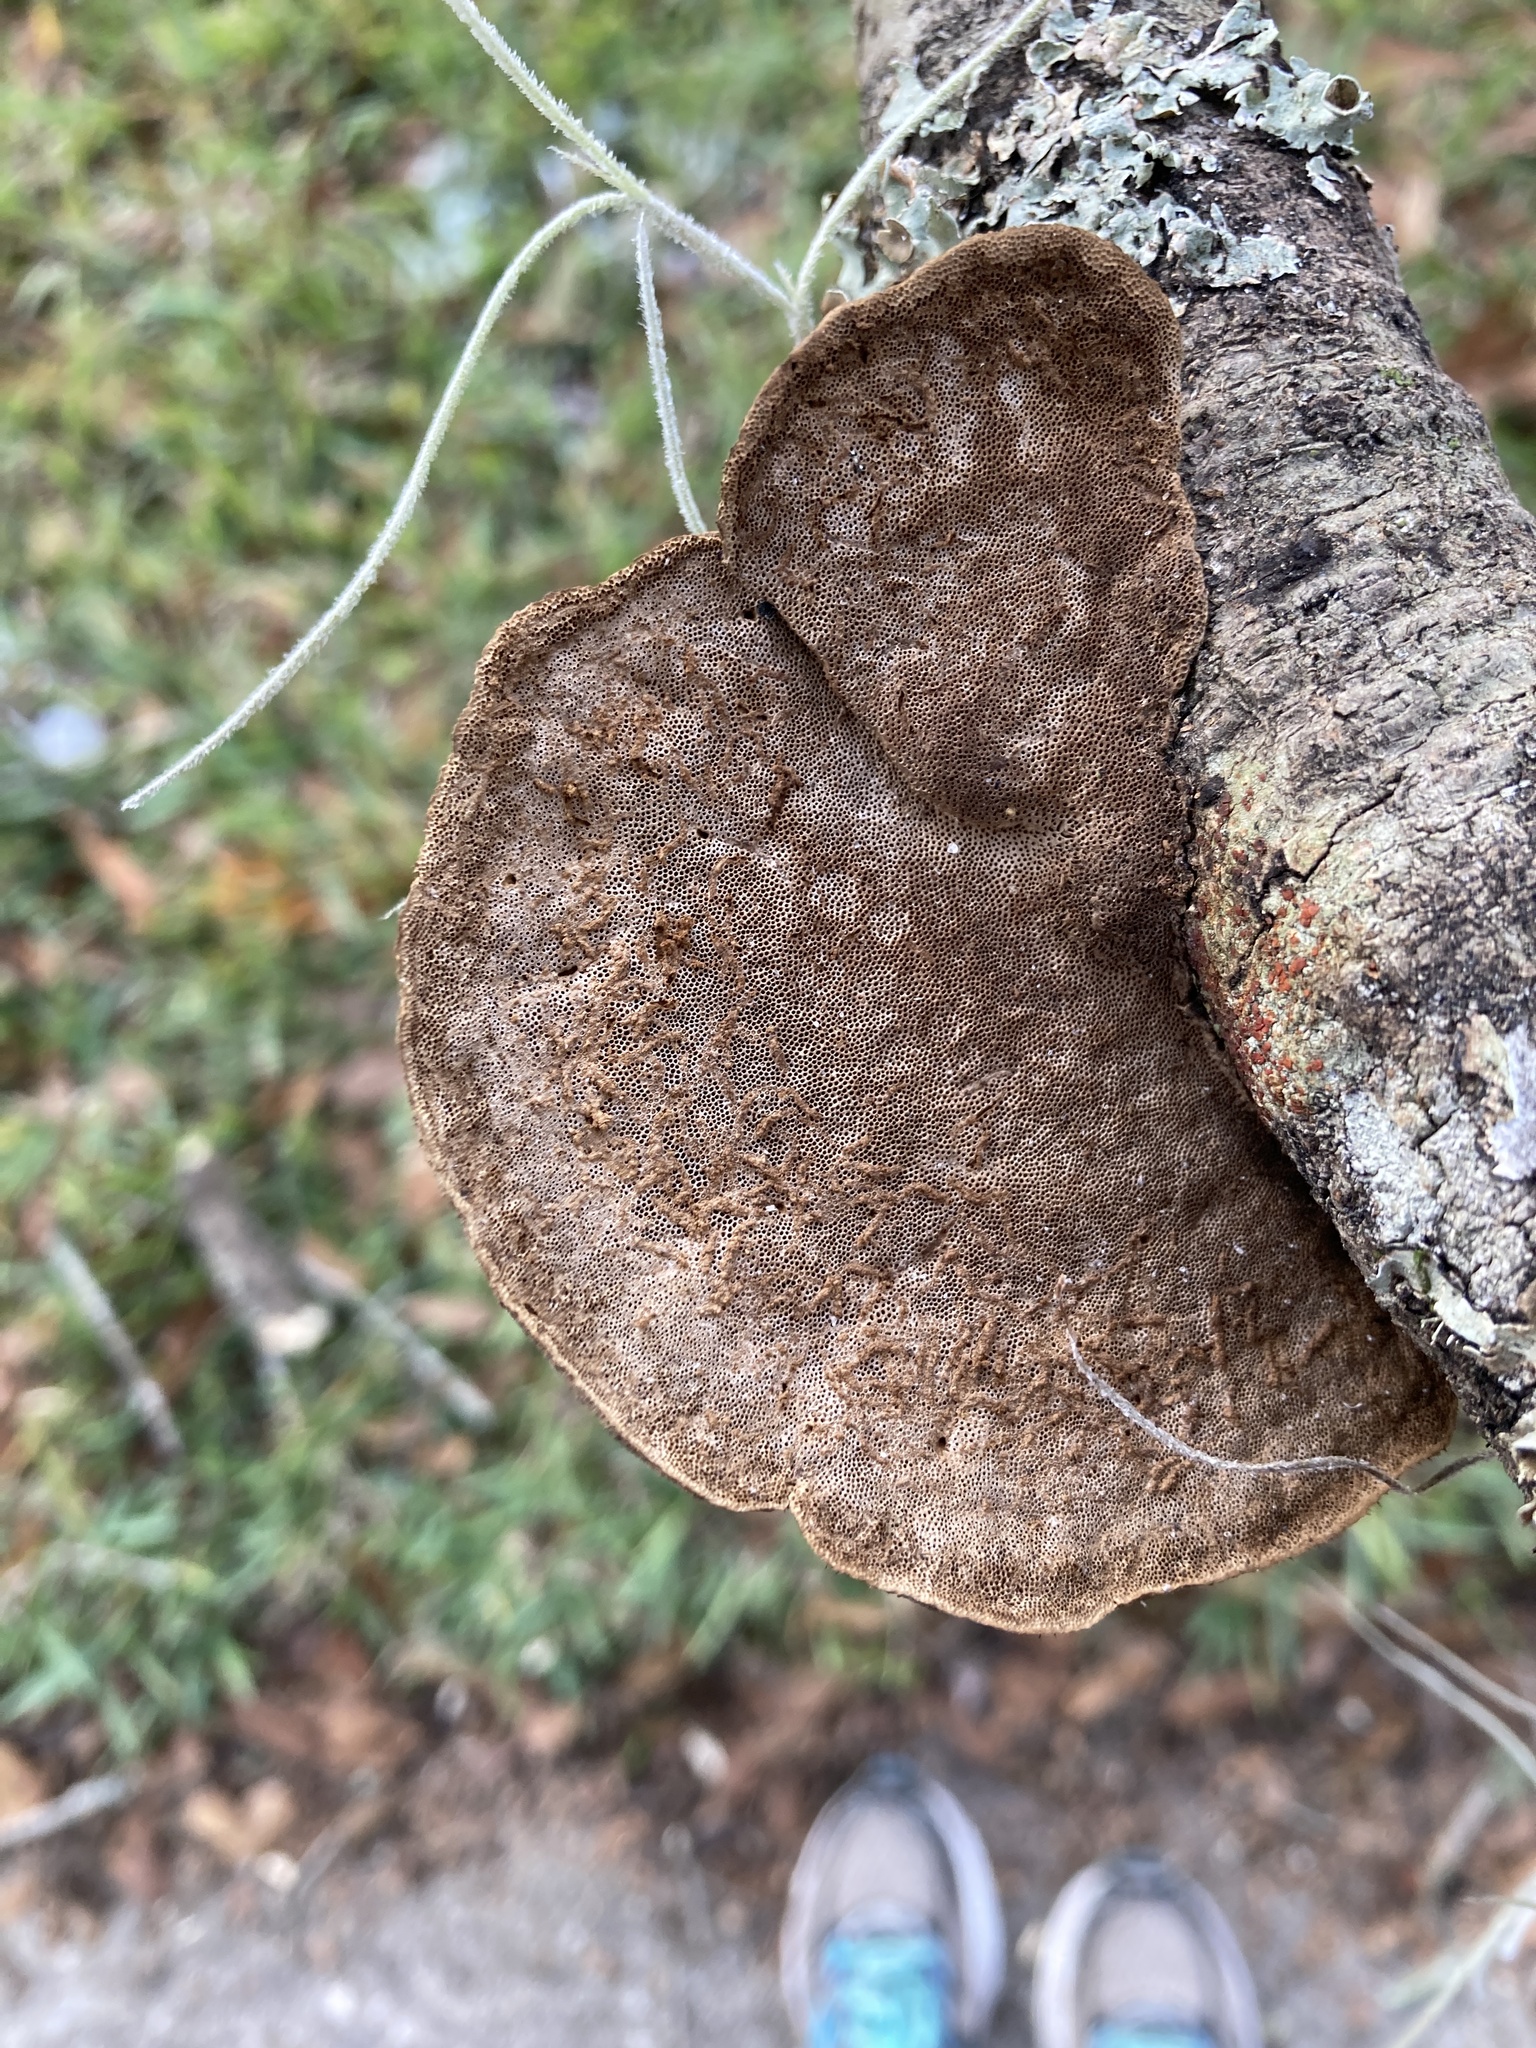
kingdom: Fungi
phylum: Basidiomycota
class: Agaricomycetes
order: Polyporales
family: Cerrenaceae
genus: Cerrena
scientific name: Cerrena hydnoides
